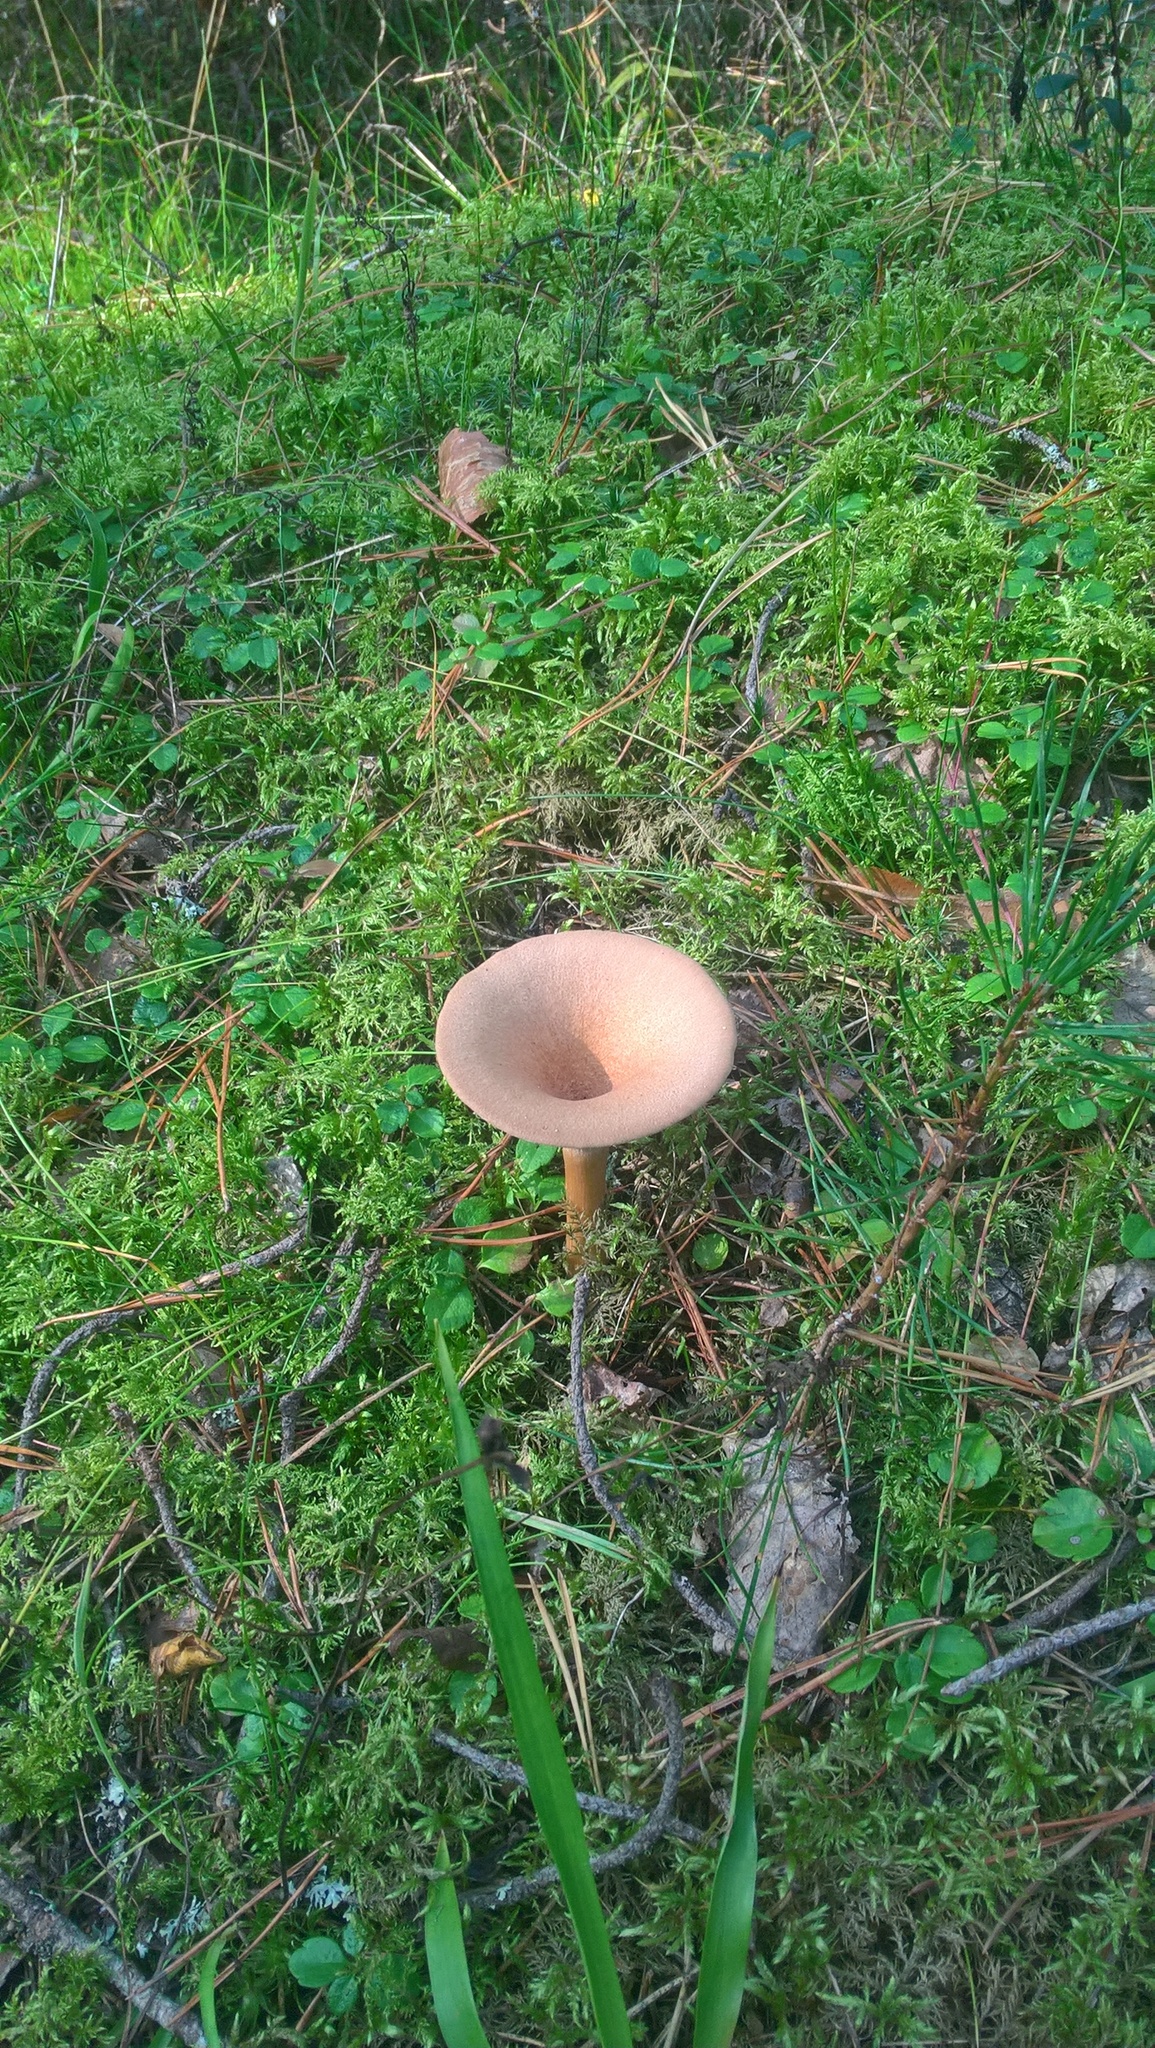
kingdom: Fungi
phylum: Basidiomycota
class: Agaricomycetes
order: Agaricales
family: Tricholomataceae
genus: Infundibulicybe
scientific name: Infundibulicybe gibba
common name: Common funnel
